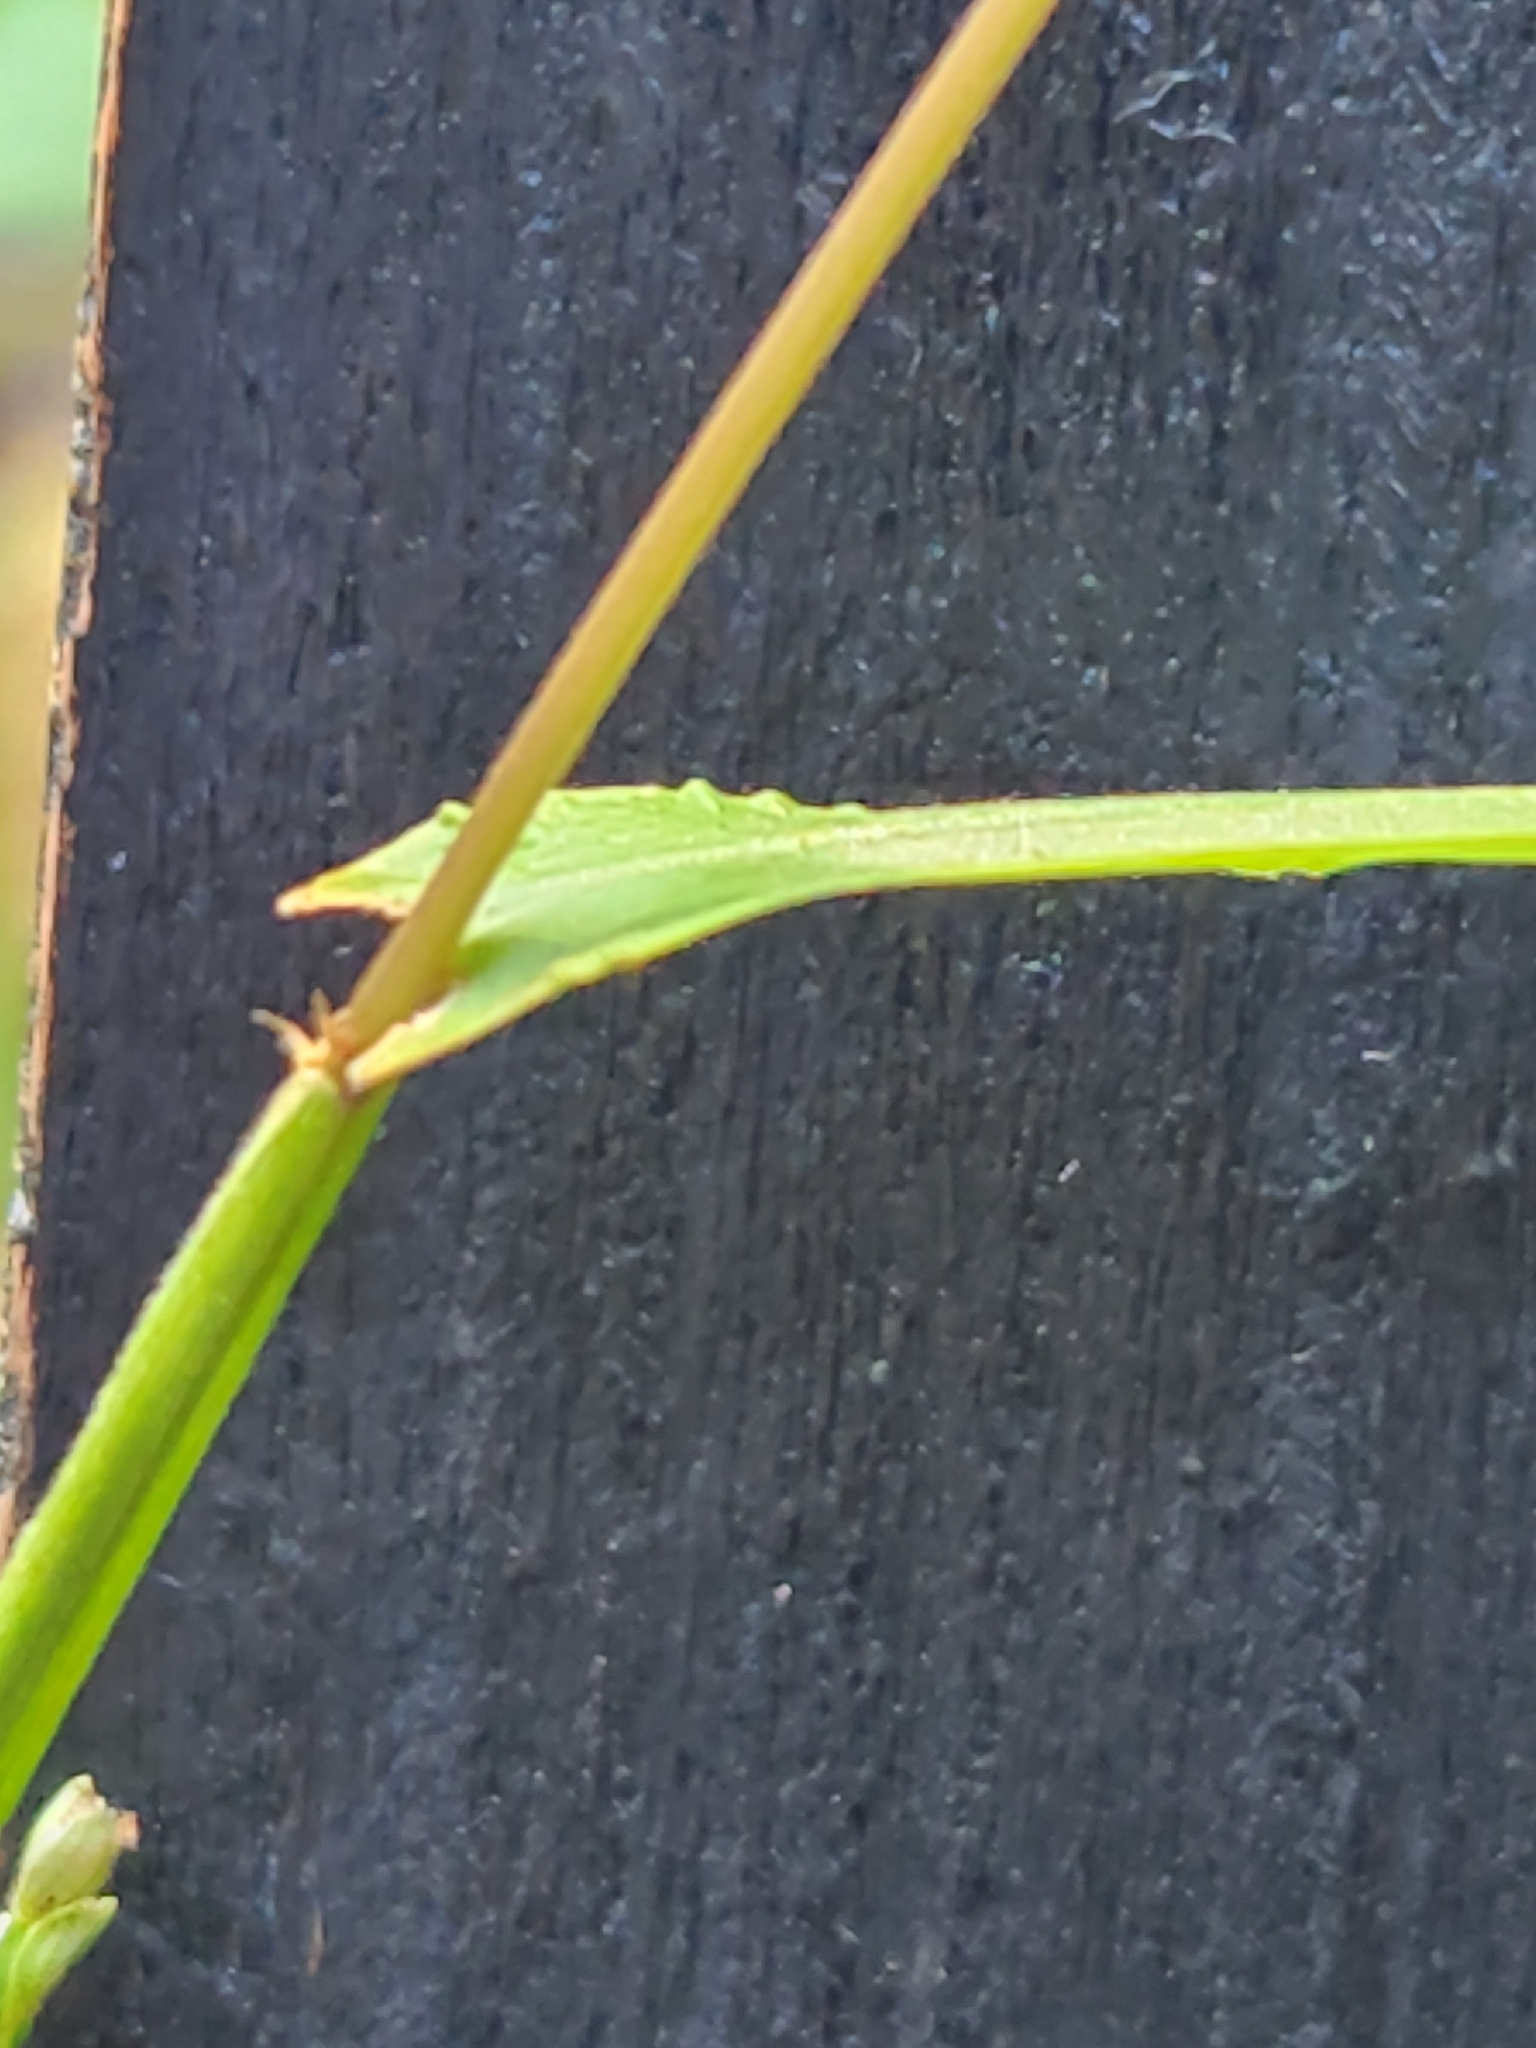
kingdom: Plantae
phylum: Tracheophyta
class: Liliopsida
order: Poales
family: Poaceae
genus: Paspalum
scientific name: Paspalum langei
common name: Rusty-seed paspalum
